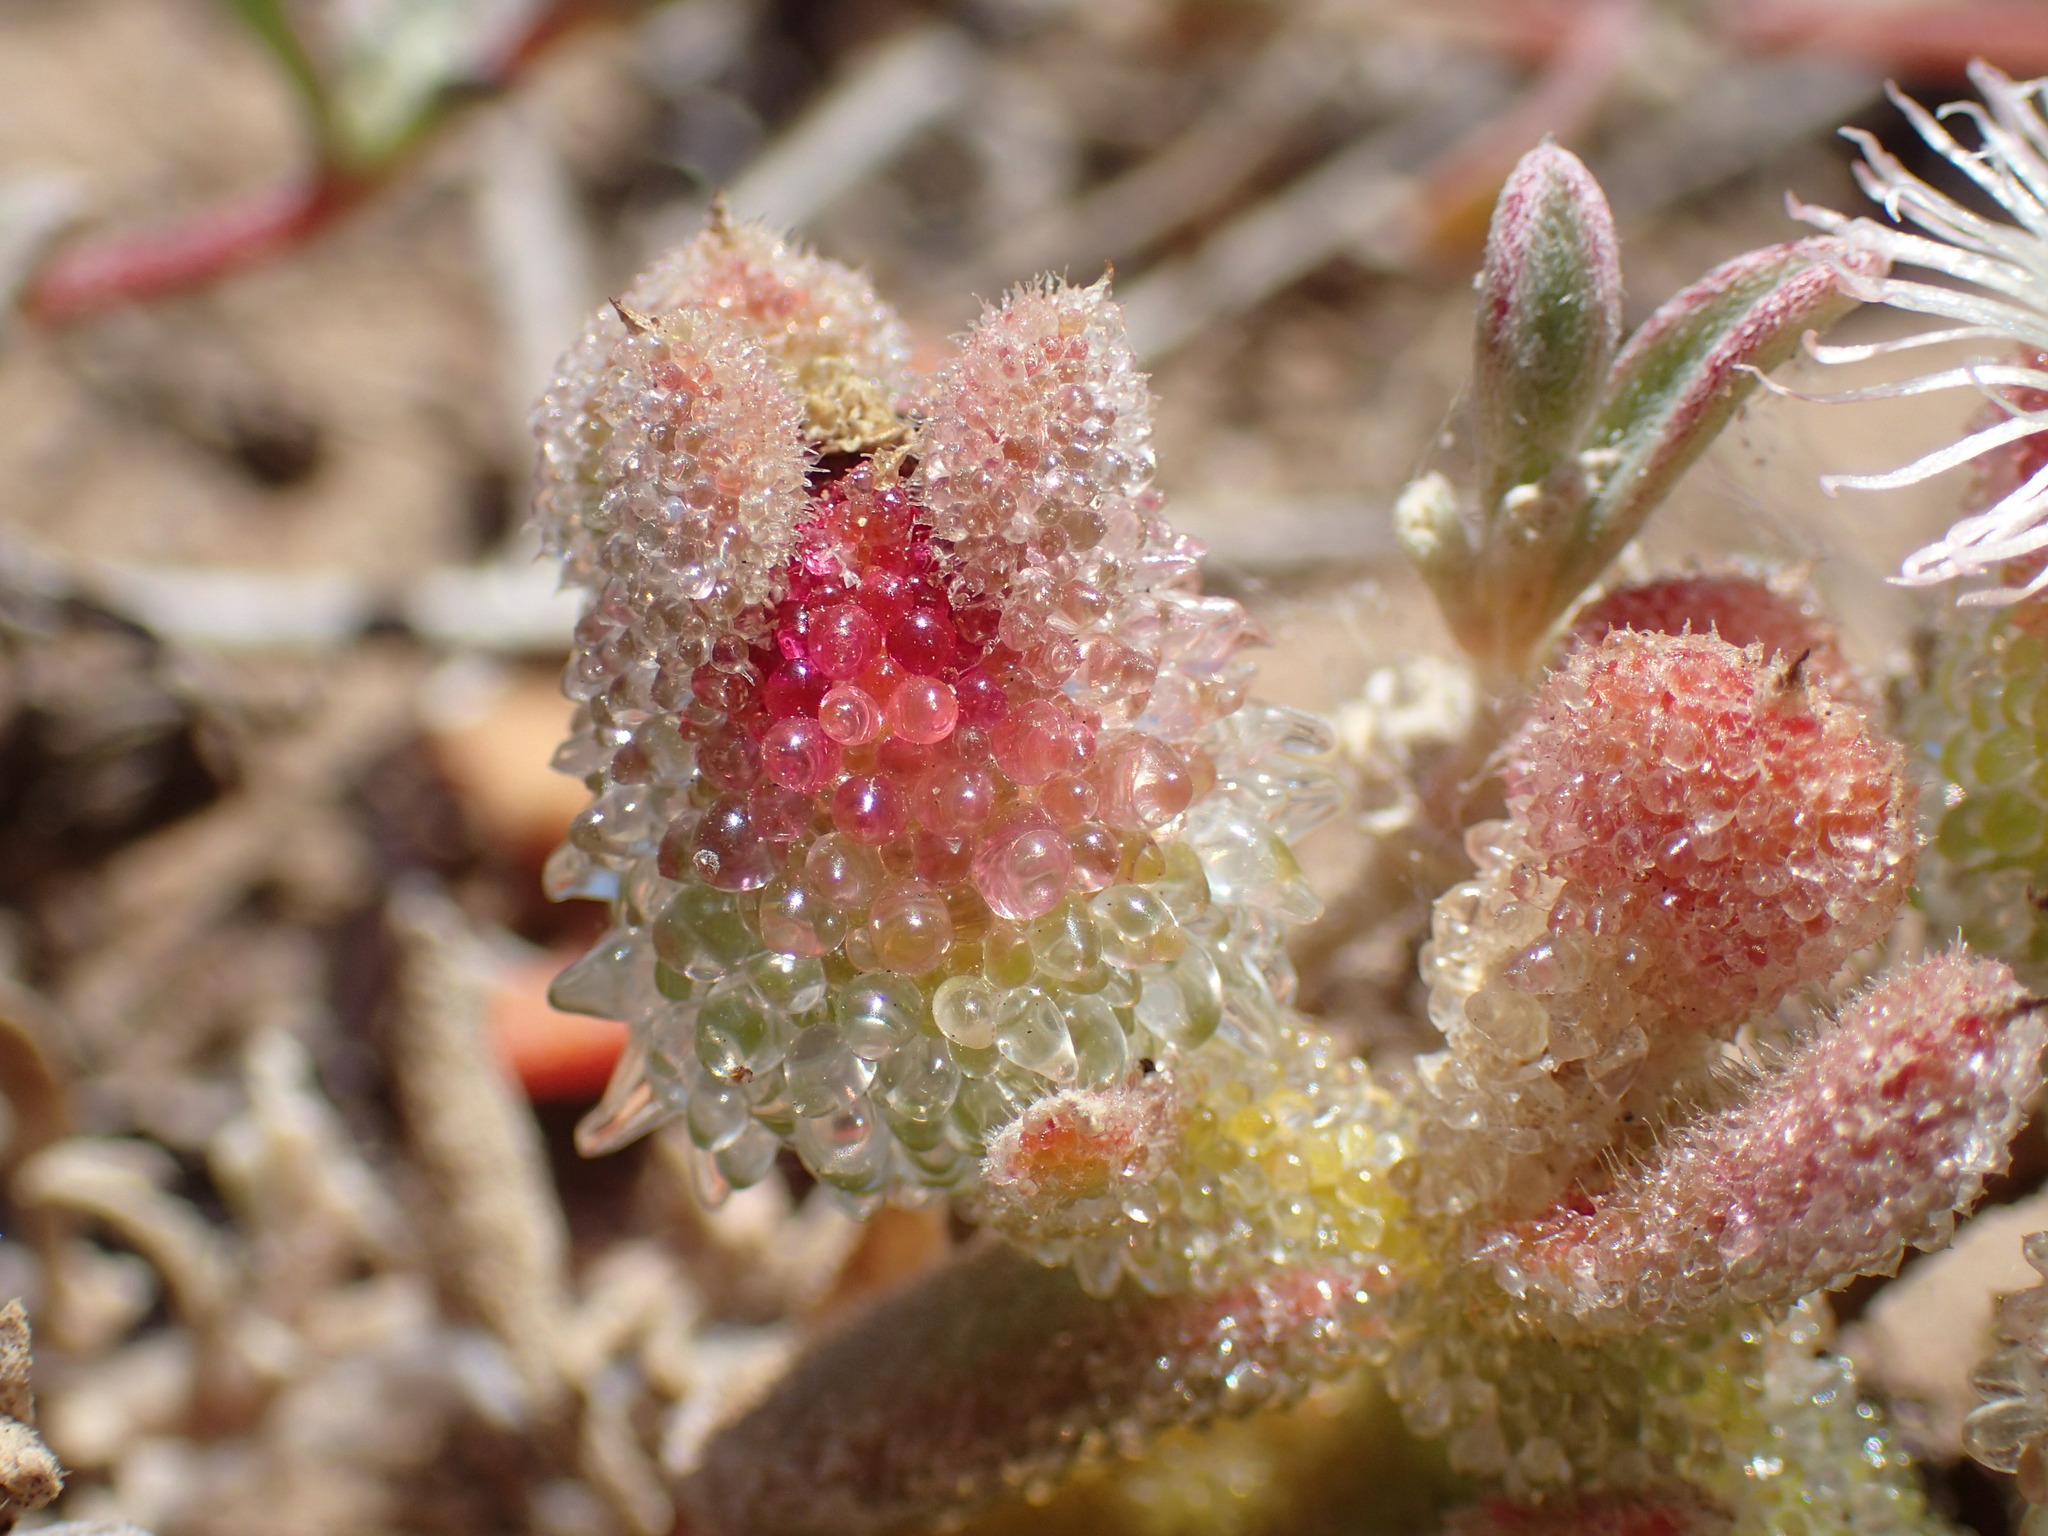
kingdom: Plantae
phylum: Tracheophyta
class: Magnoliopsida
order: Caryophyllales
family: Aizoaceae
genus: Mesembryanthemum
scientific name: Mesembryanthemum crystallinum
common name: Common iceplant
